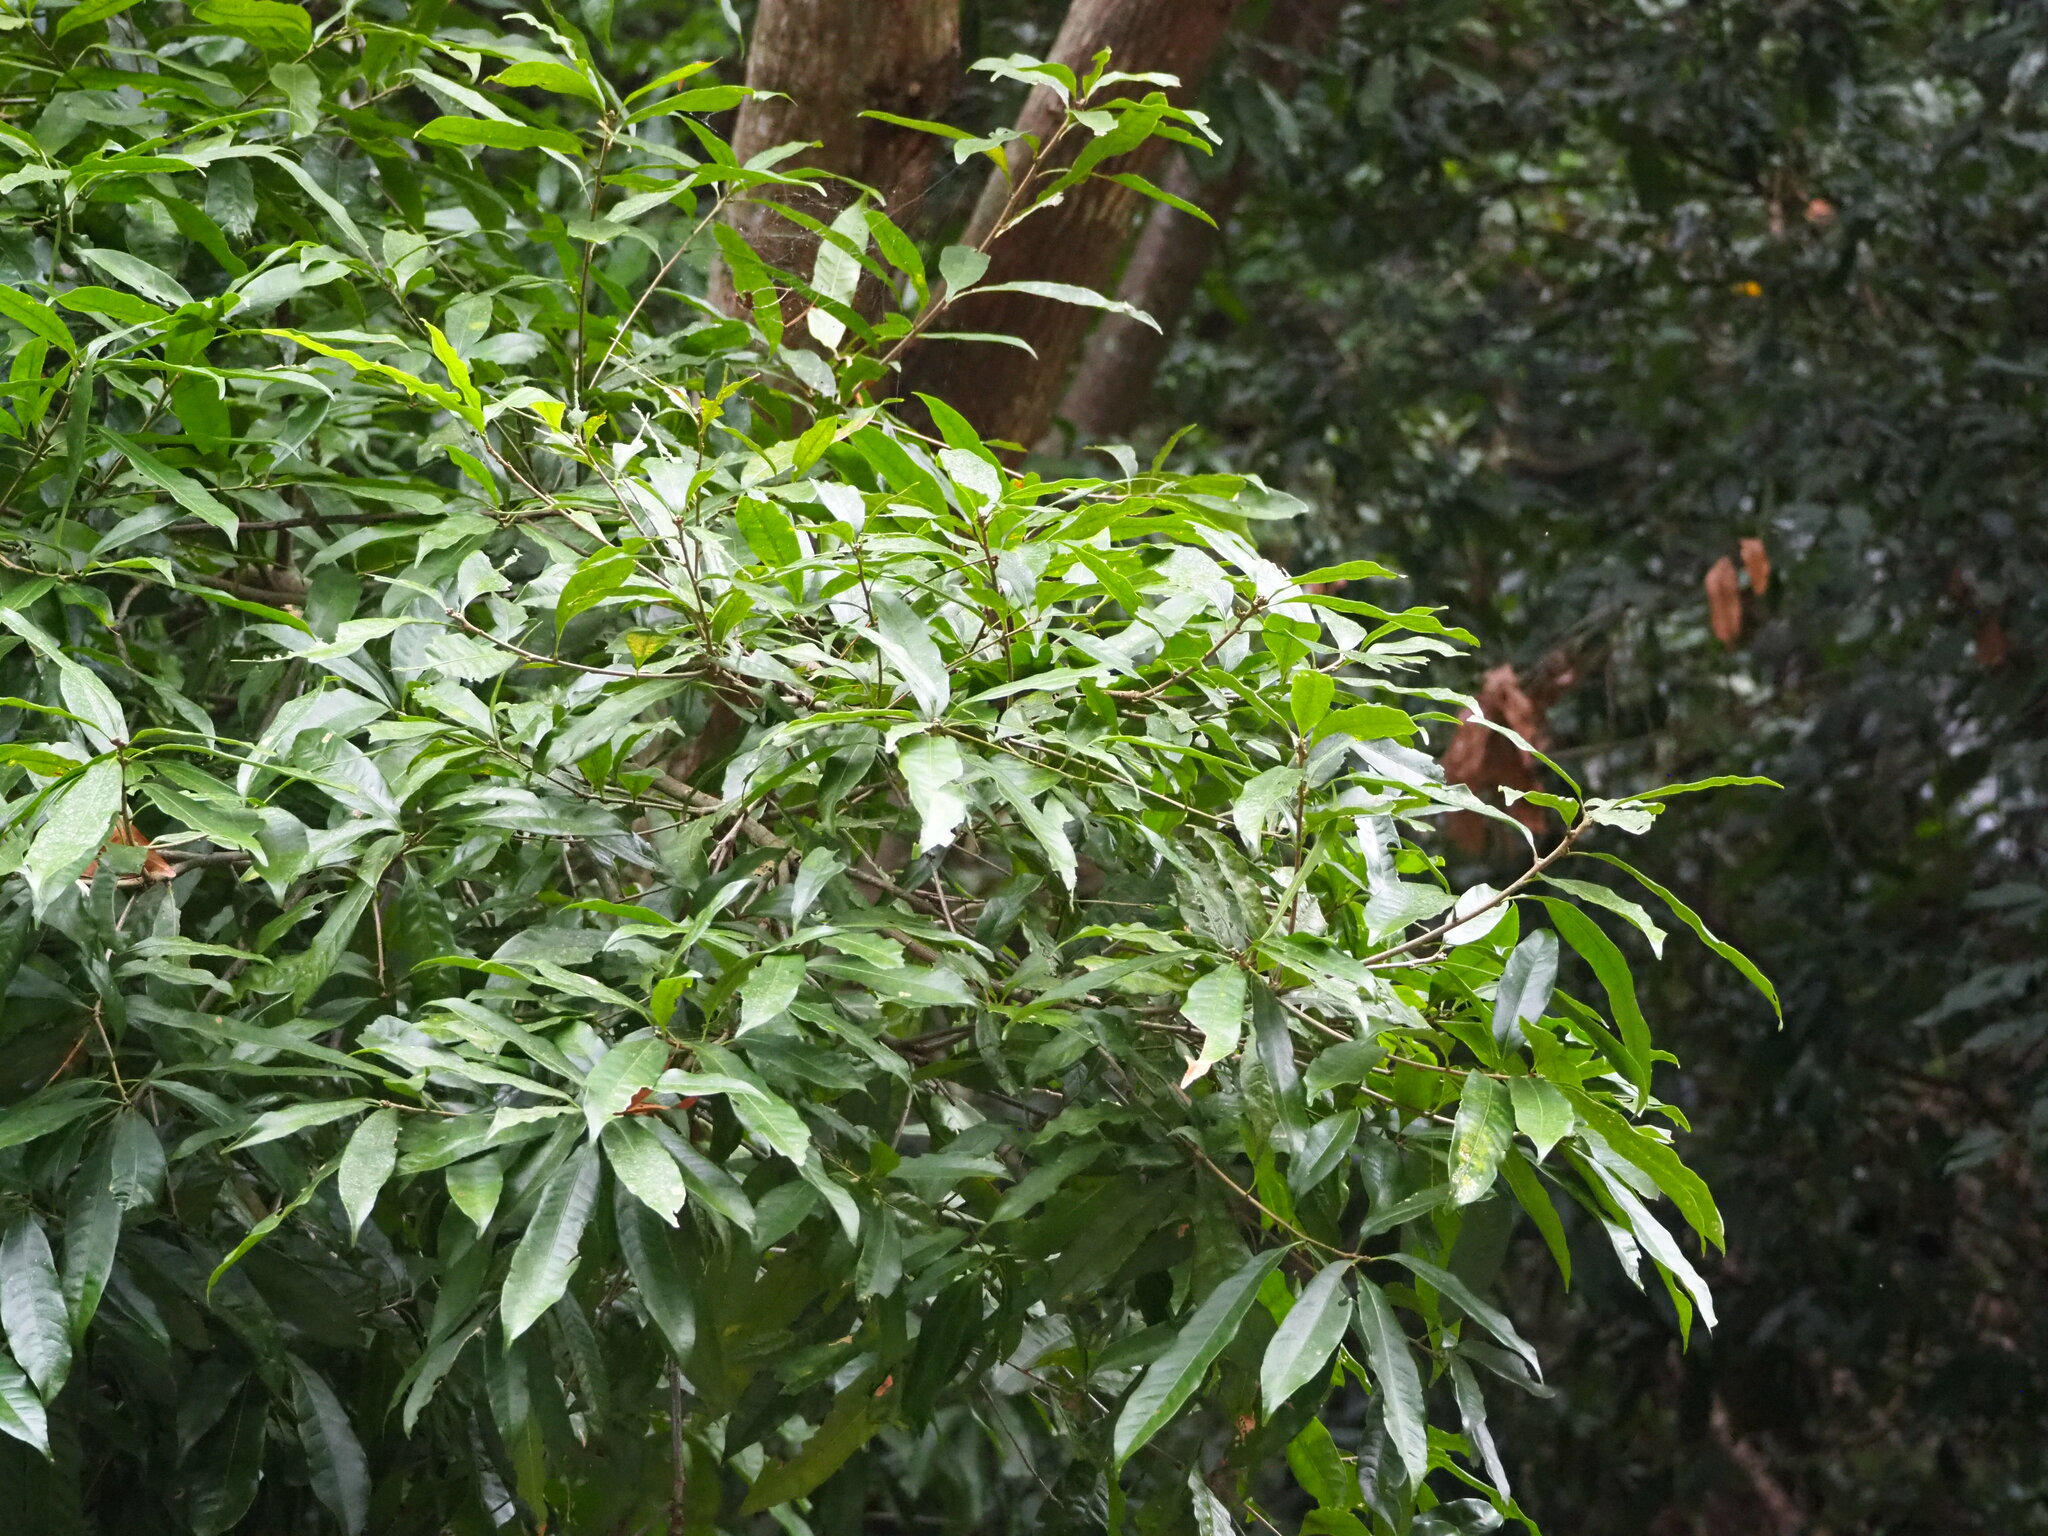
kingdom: Plantae
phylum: Tracheophyta
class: Magnoliopsida
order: Fagales
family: Fagaceae
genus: Lithocarpus
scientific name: Lithocarpus brevicaudatus
